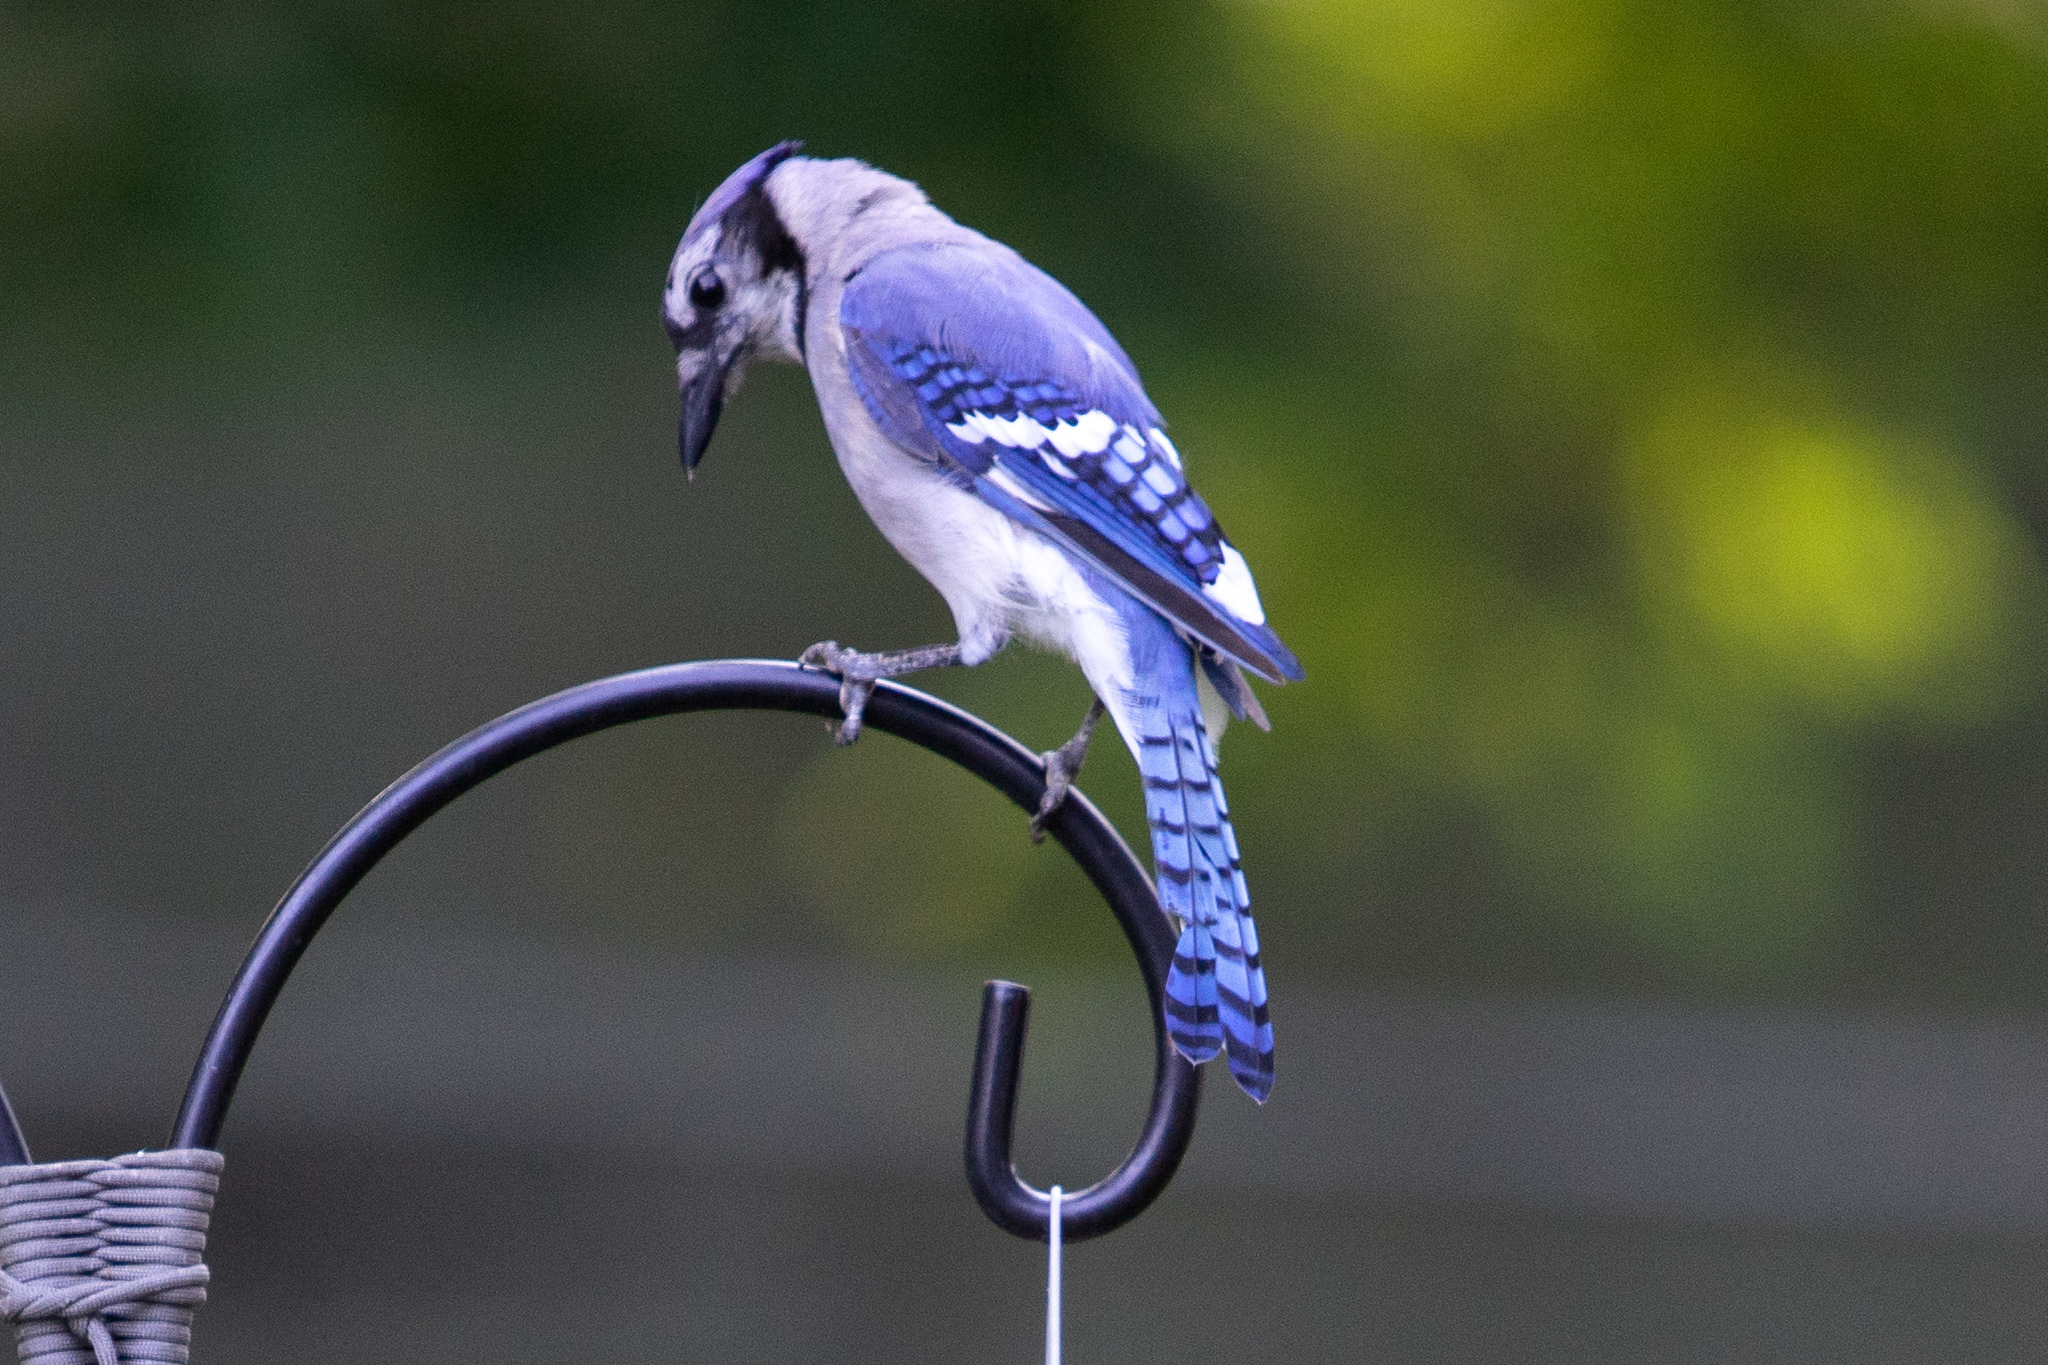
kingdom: Animalia
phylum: Chordata
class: Aves
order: Passeriformes
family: Corvidae
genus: Cyanocitta
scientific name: Cyanocitta cristata
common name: Blue jay
